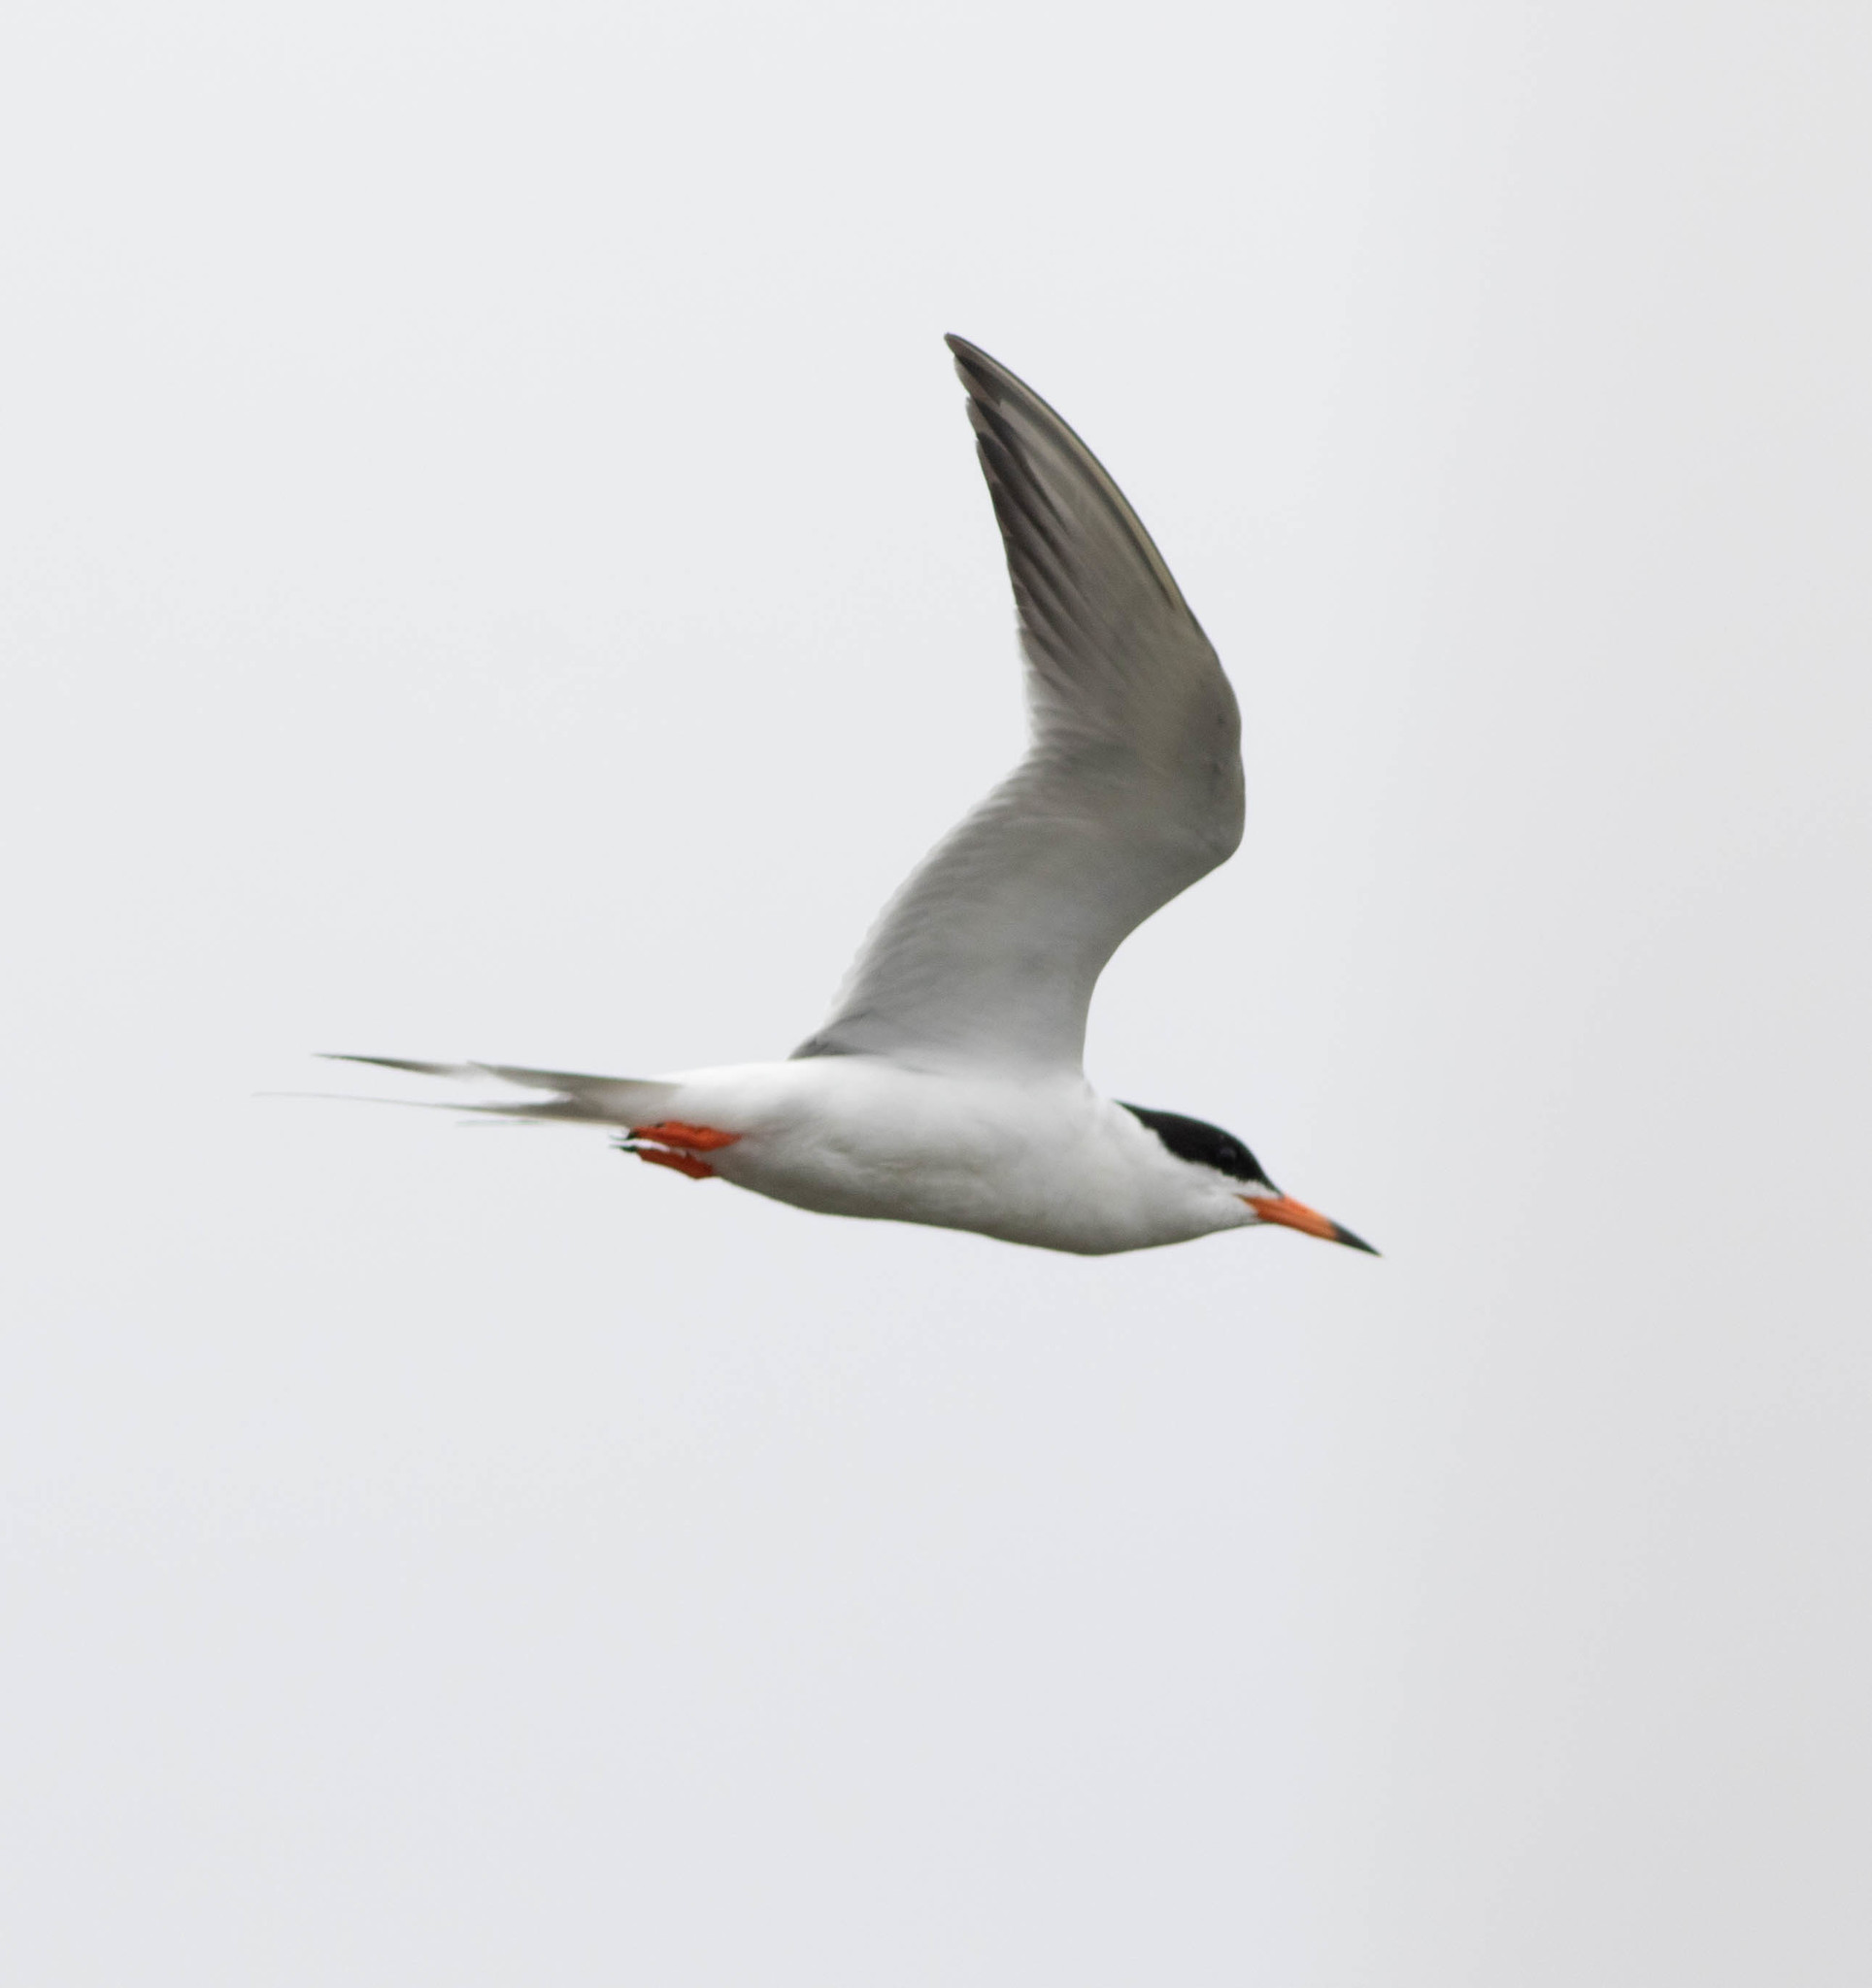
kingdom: Animalia
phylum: Chordata
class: Aves
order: Charadriiformes
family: Laridae
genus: Sterna
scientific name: Sterna forsteri
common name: Forster's tern
